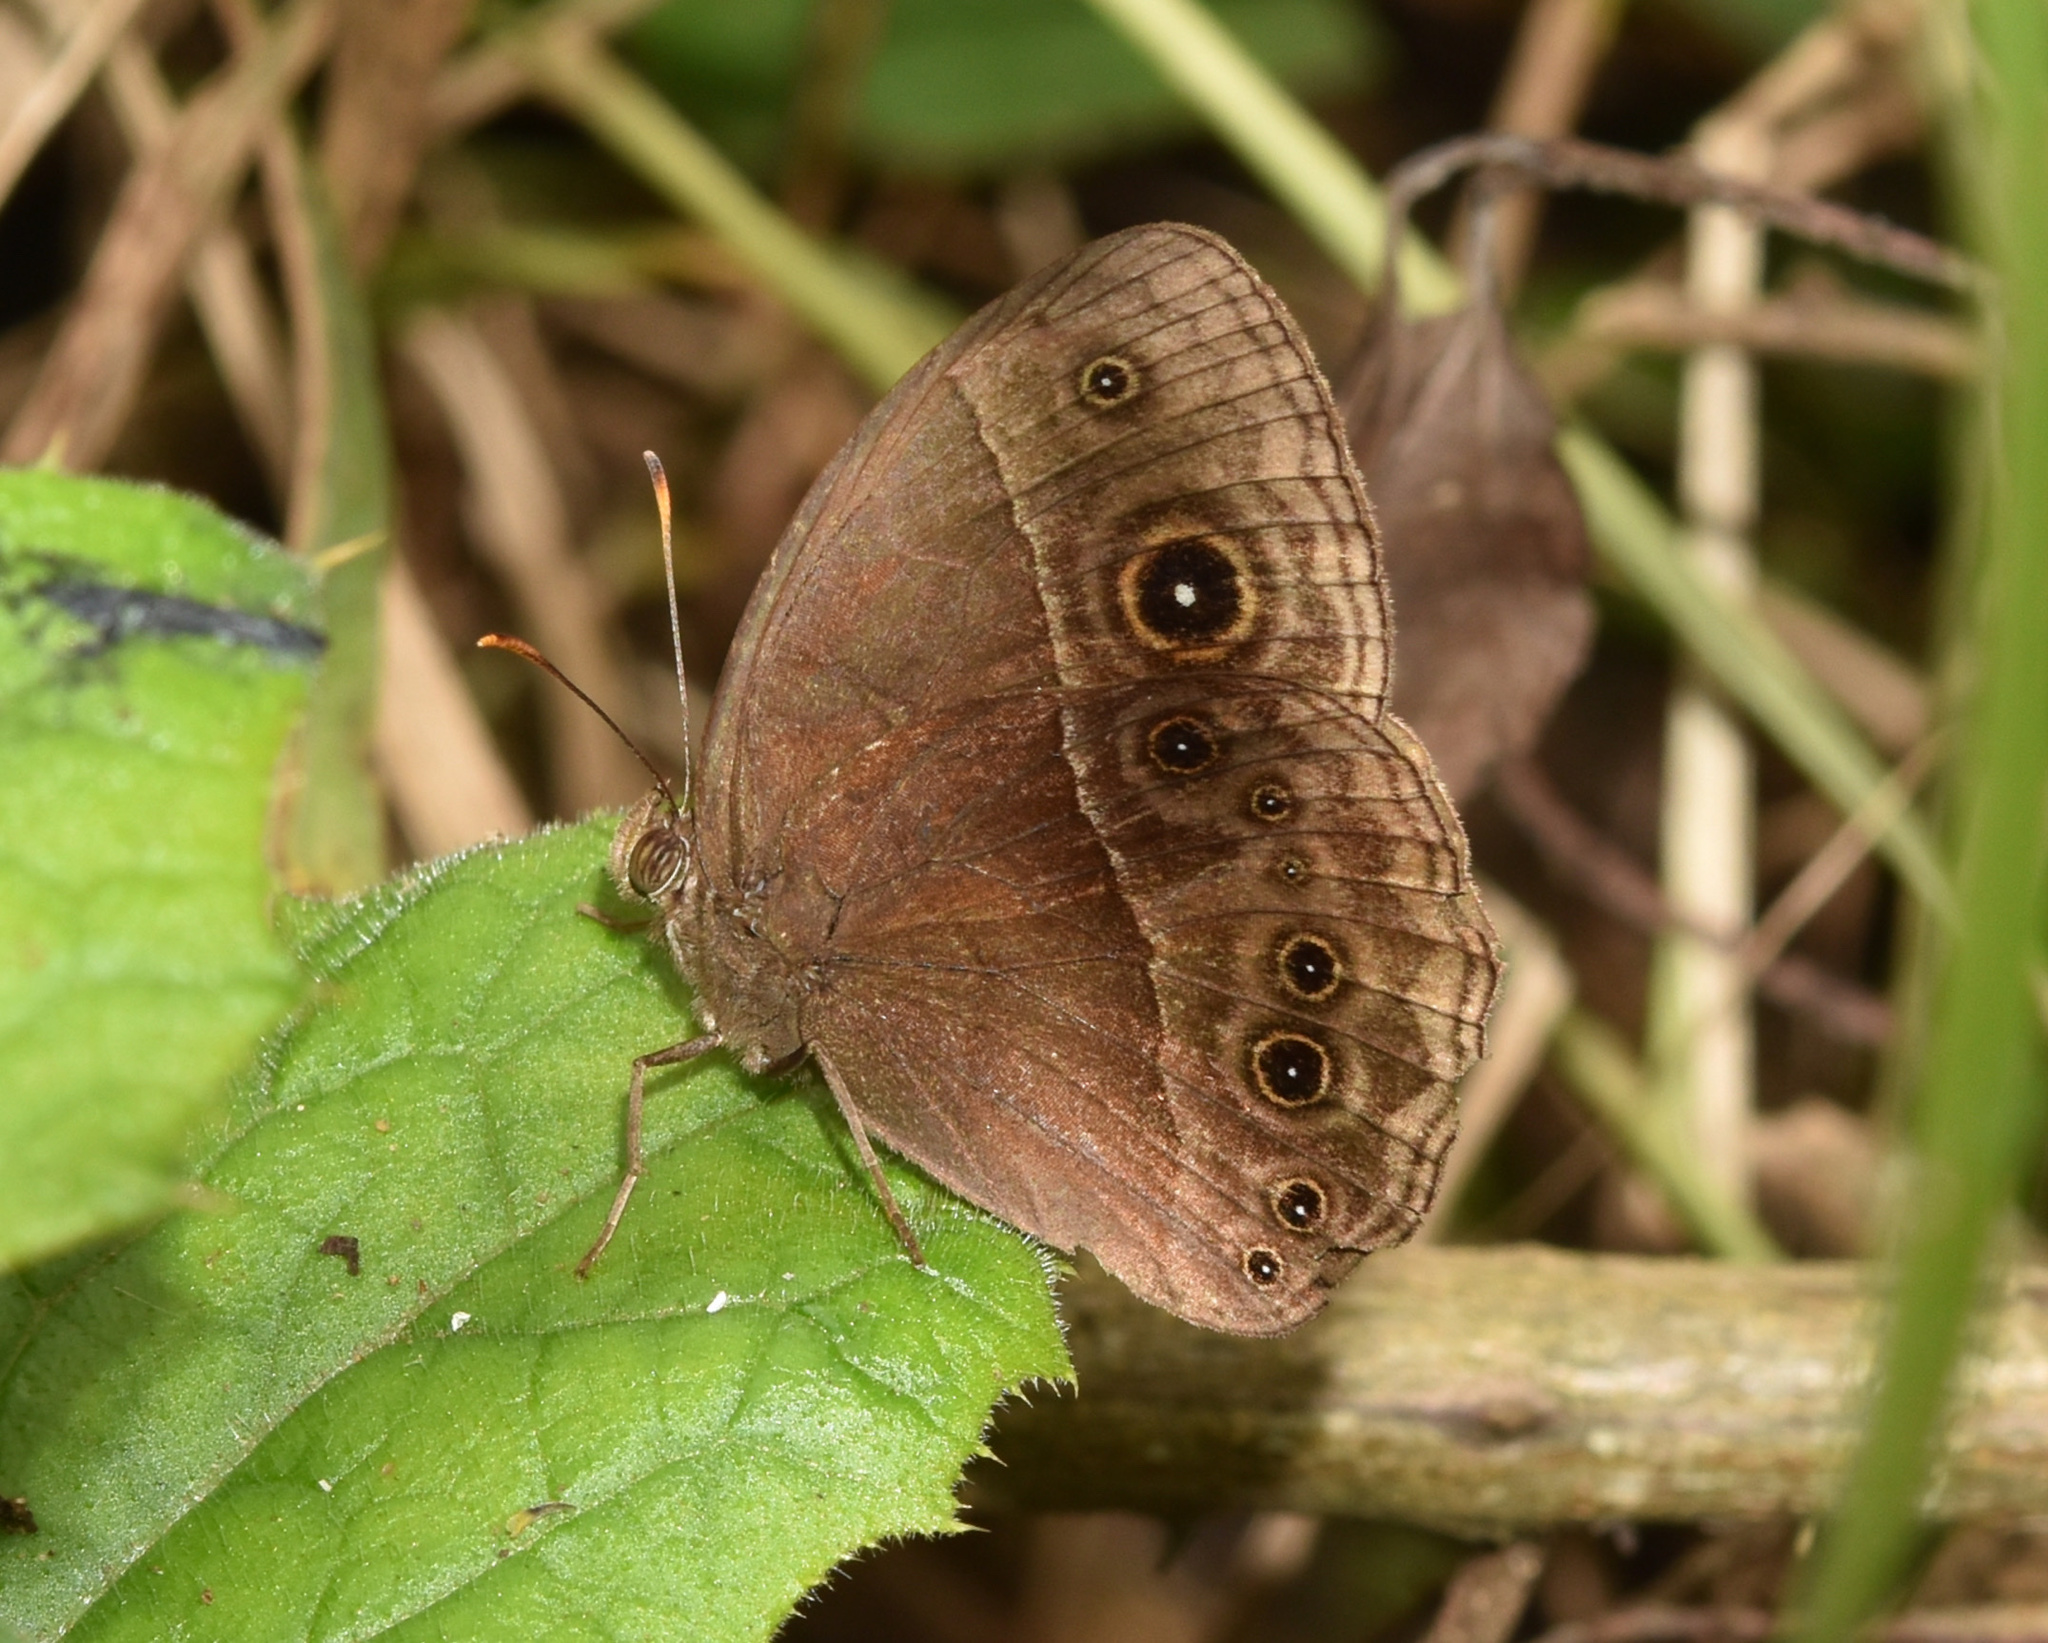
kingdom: Animalia
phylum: Arthropoda
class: Insecta
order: Lepidoptera
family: Nymphalidae
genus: Mycalesis
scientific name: Mycalesis rhacotis
